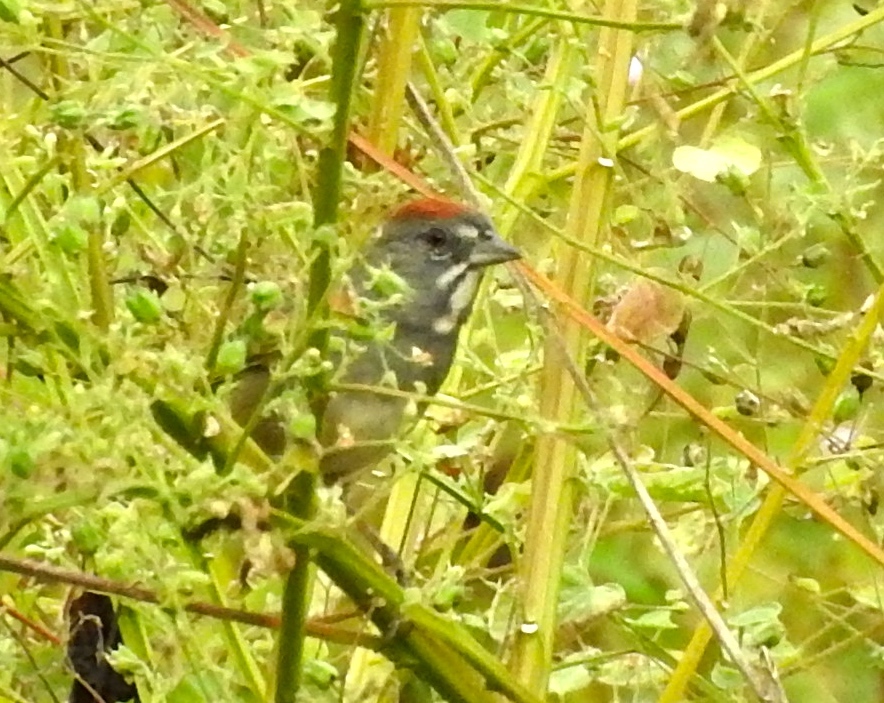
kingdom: Animalia
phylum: Chordata
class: Aves
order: Passeriformes
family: Passerellidae
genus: Pipilo
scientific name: Pipilo chlorurus
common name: Green-tailed towhee
